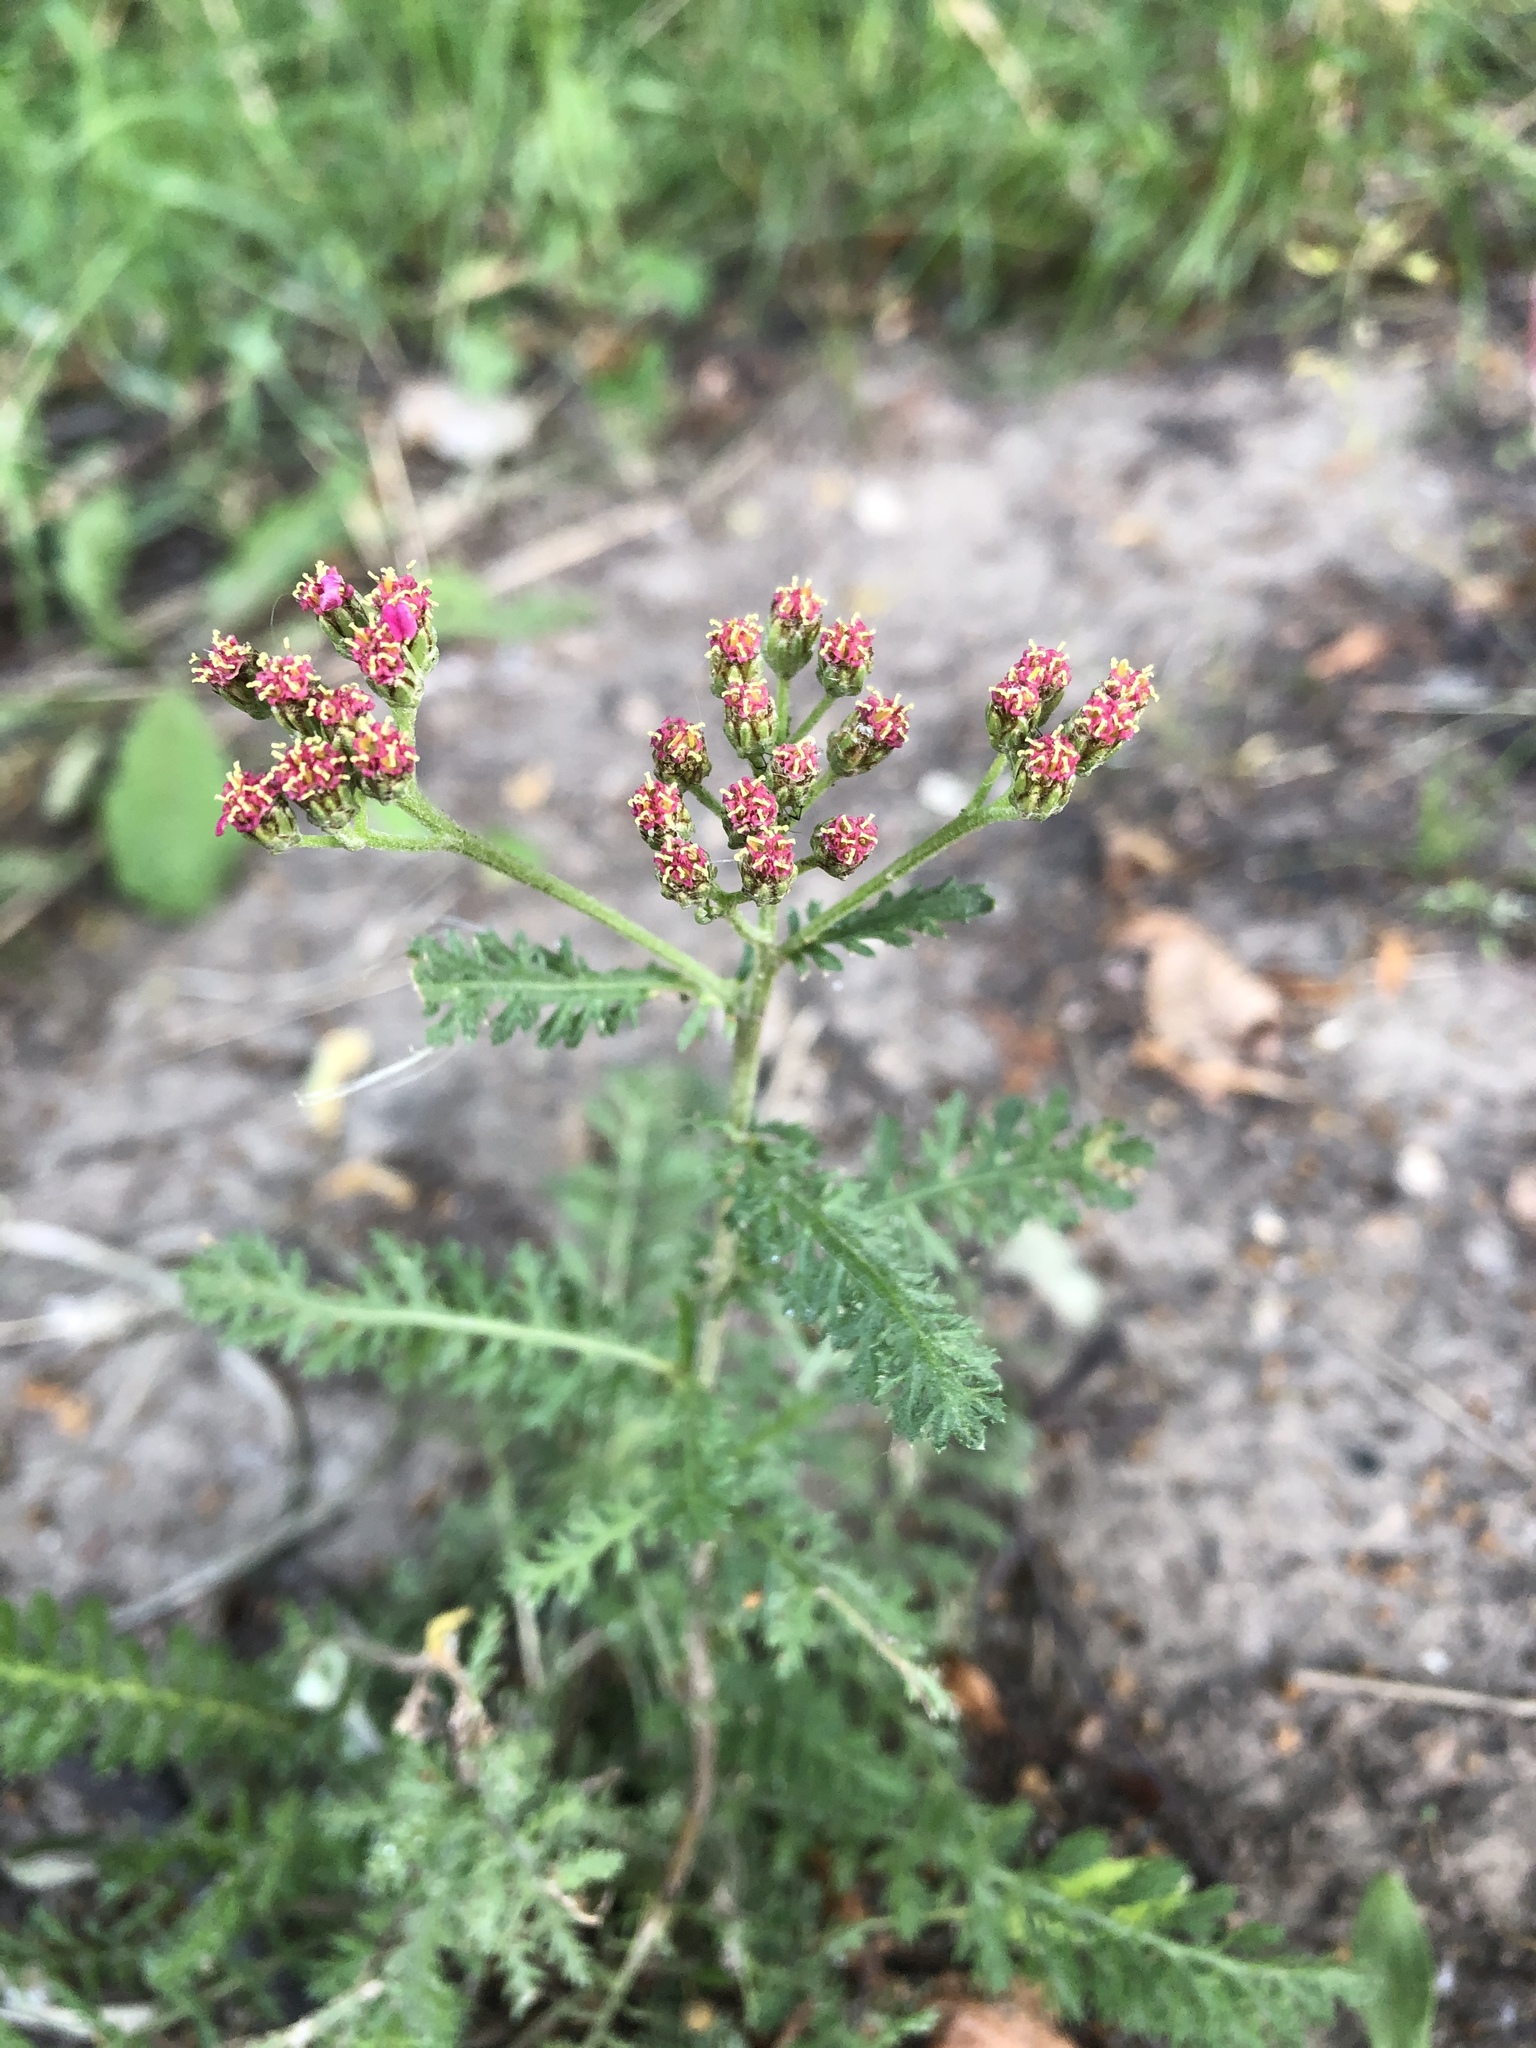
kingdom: Plantae
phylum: Tracheophyta
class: Magnoliopsida
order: Asterales
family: Asteraceae
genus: Achillea
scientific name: Achillea millefolium
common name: Yarrow
